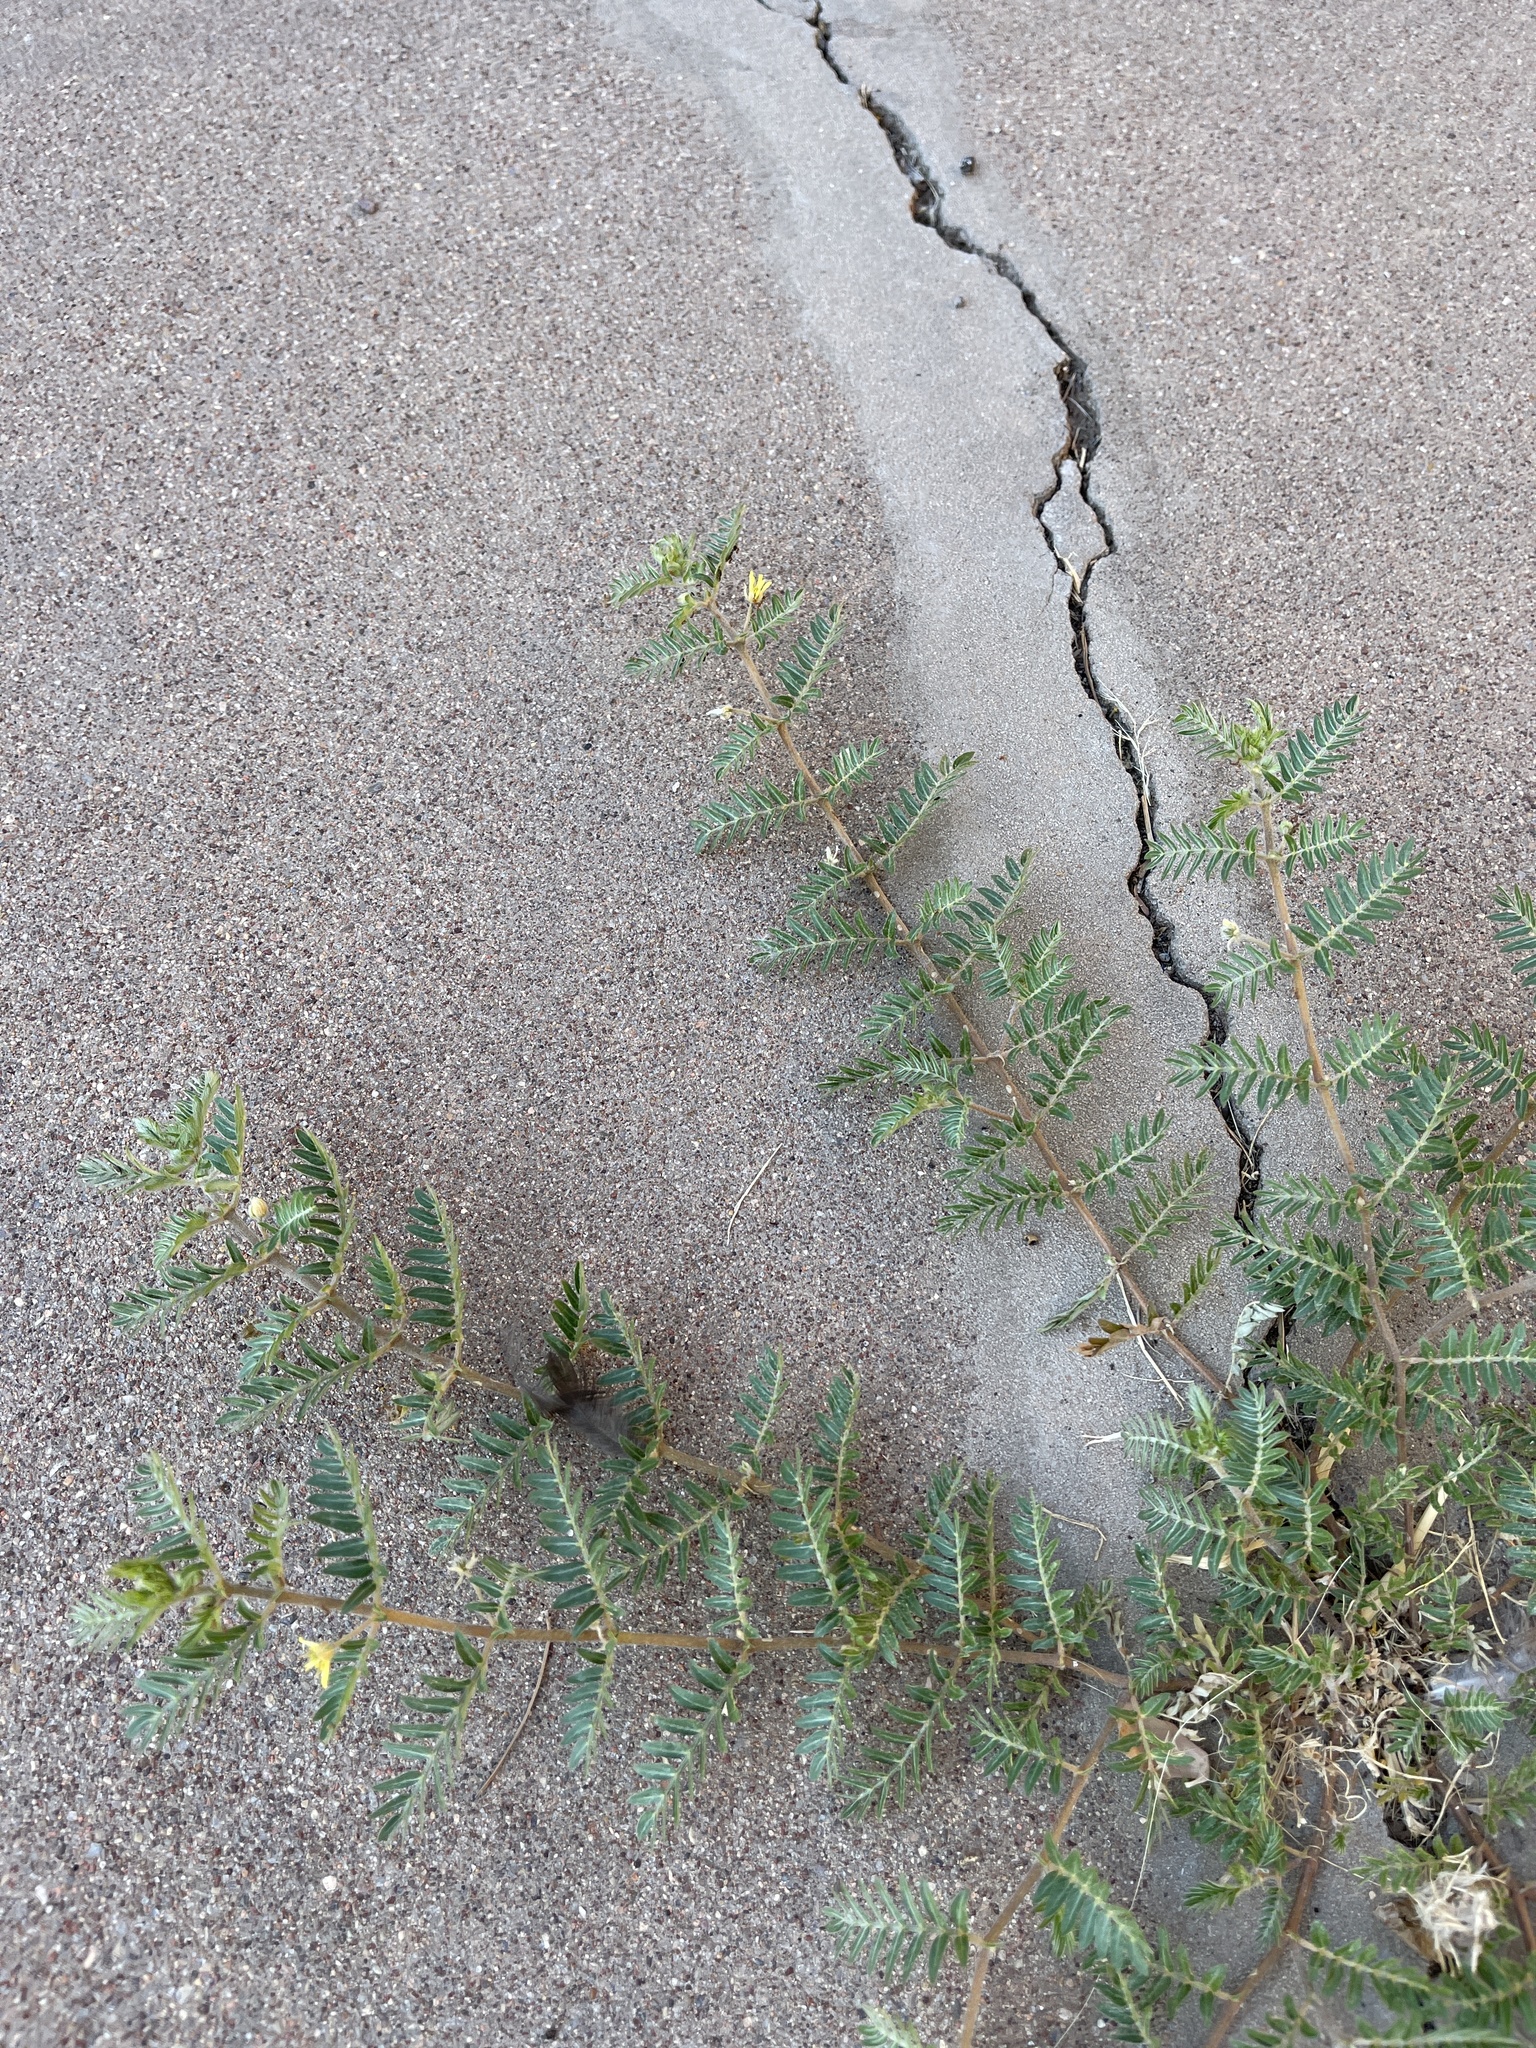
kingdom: Plantae
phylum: Tracheophyta
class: Magnoliopsida
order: Zygophyllales
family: Zygophyllaceae
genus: Tribulus
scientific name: Tribulus terrestris
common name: Puncturevine
